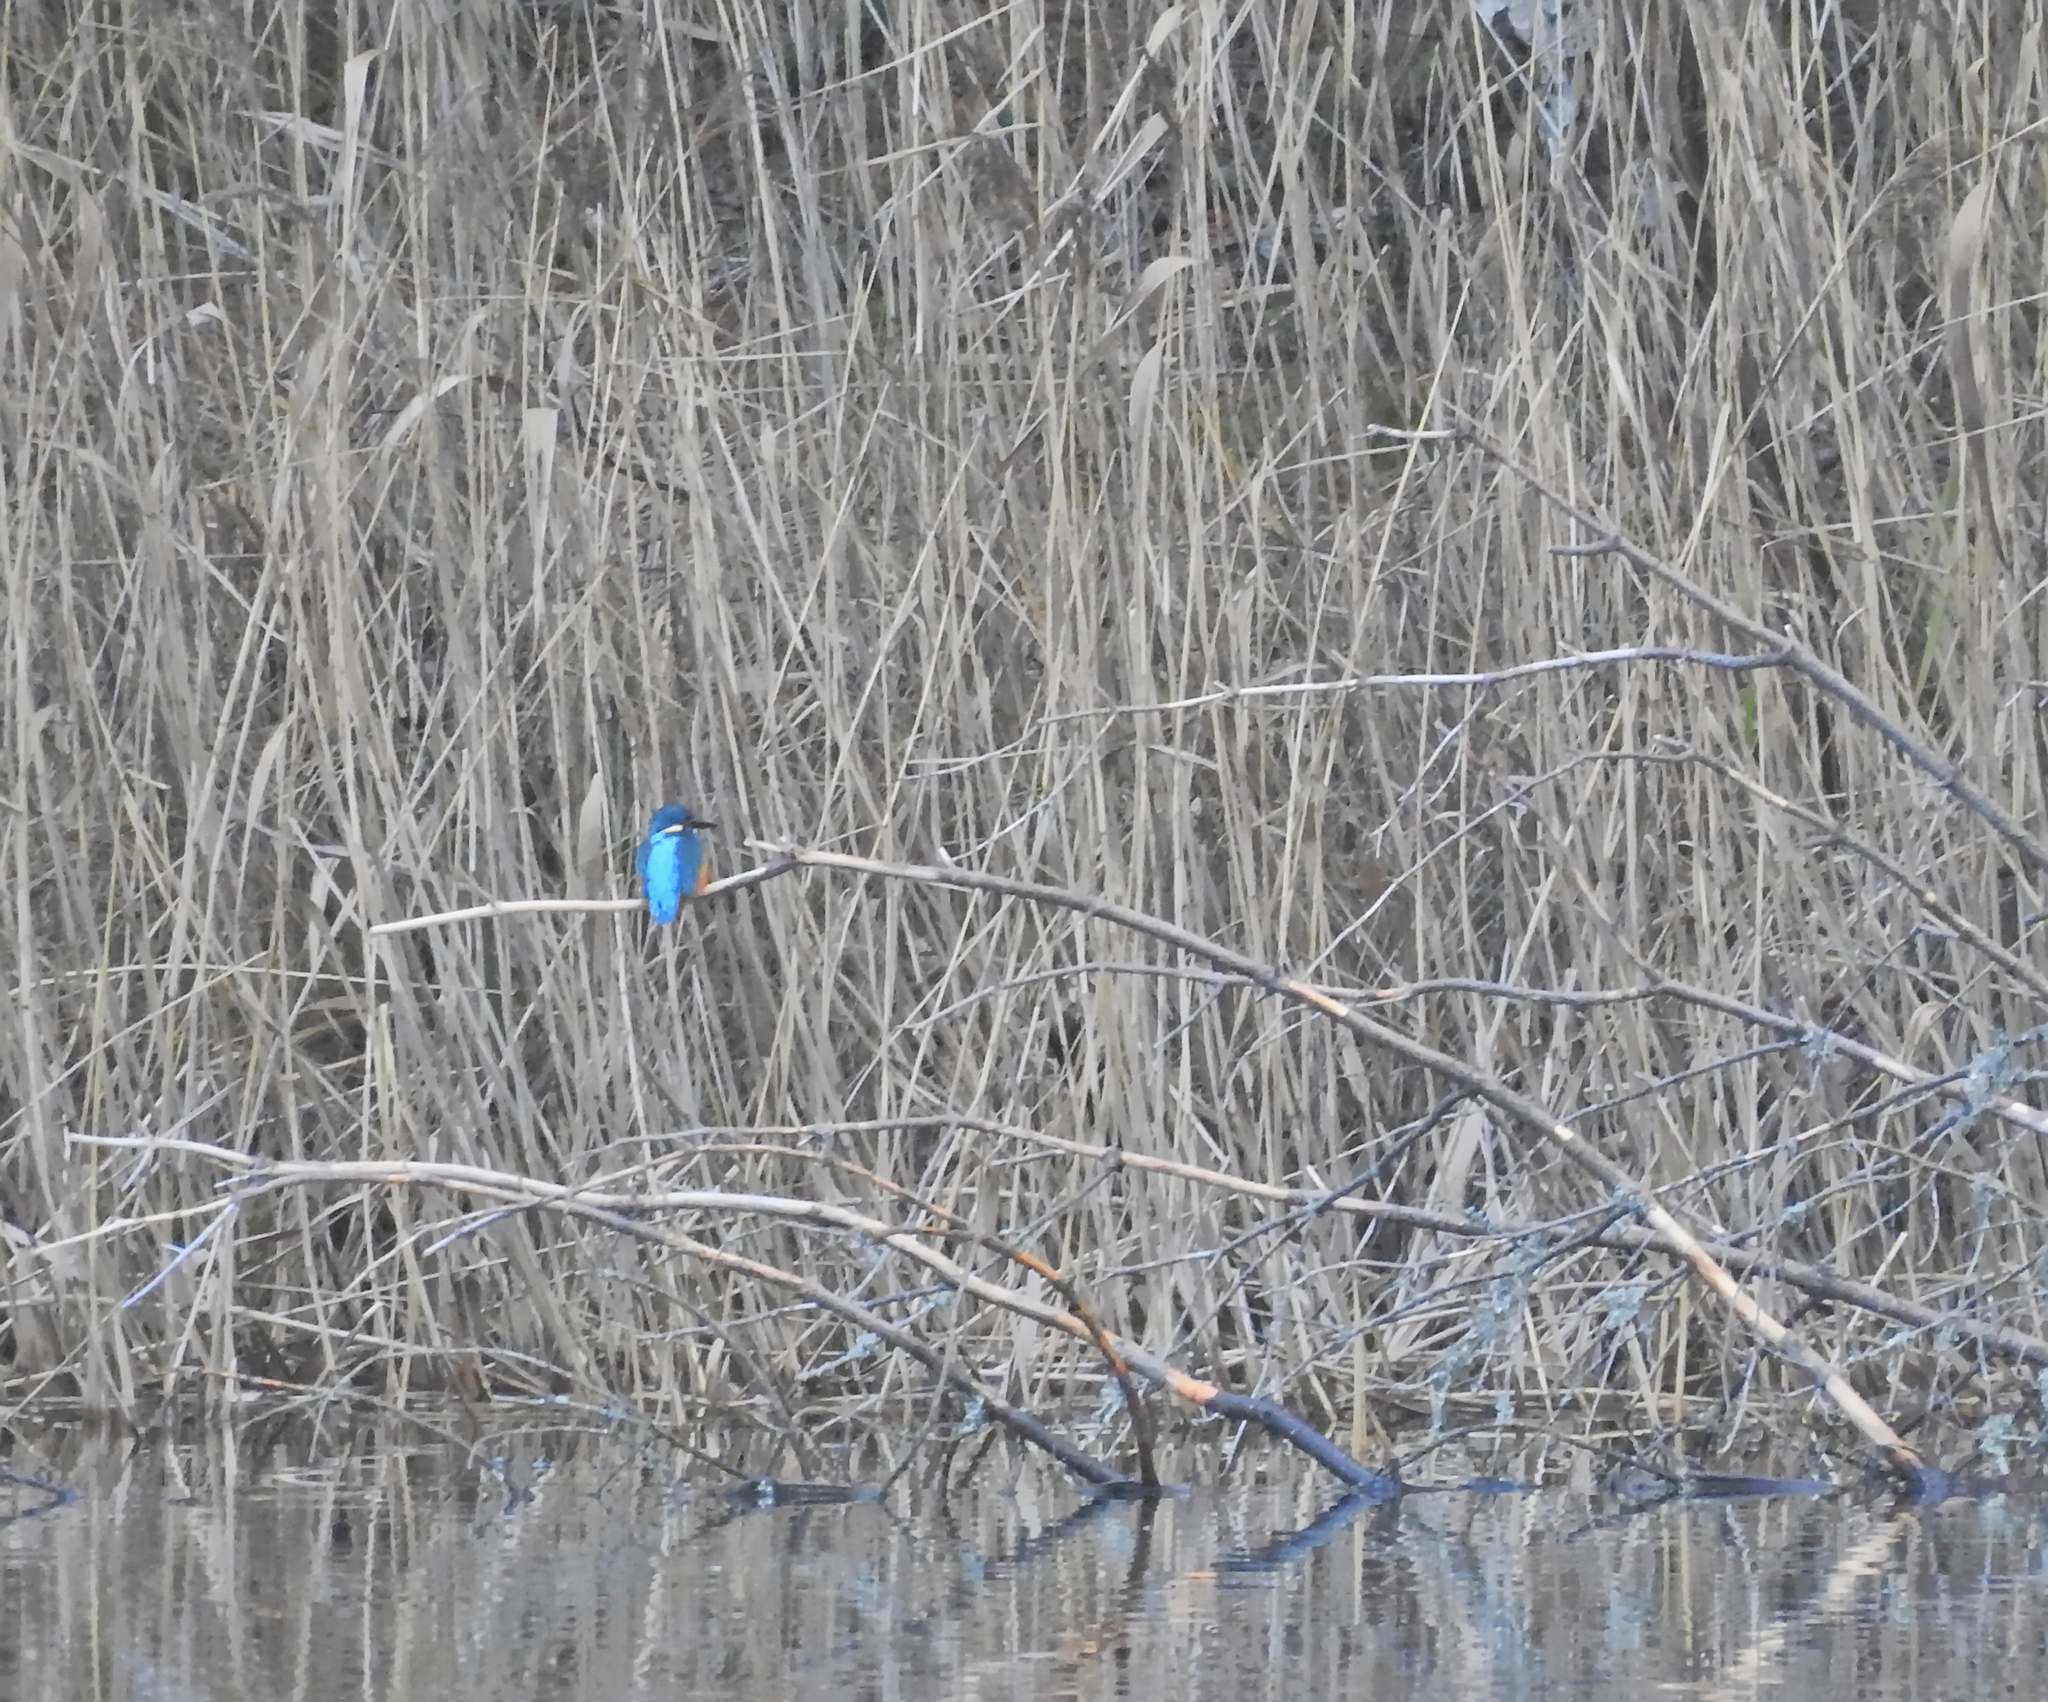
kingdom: Animalia
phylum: Chordata
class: Aves
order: Coraciiformes
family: Alcedinidae
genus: Alcedo
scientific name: Alcedo atthis
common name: Common kingfisher
